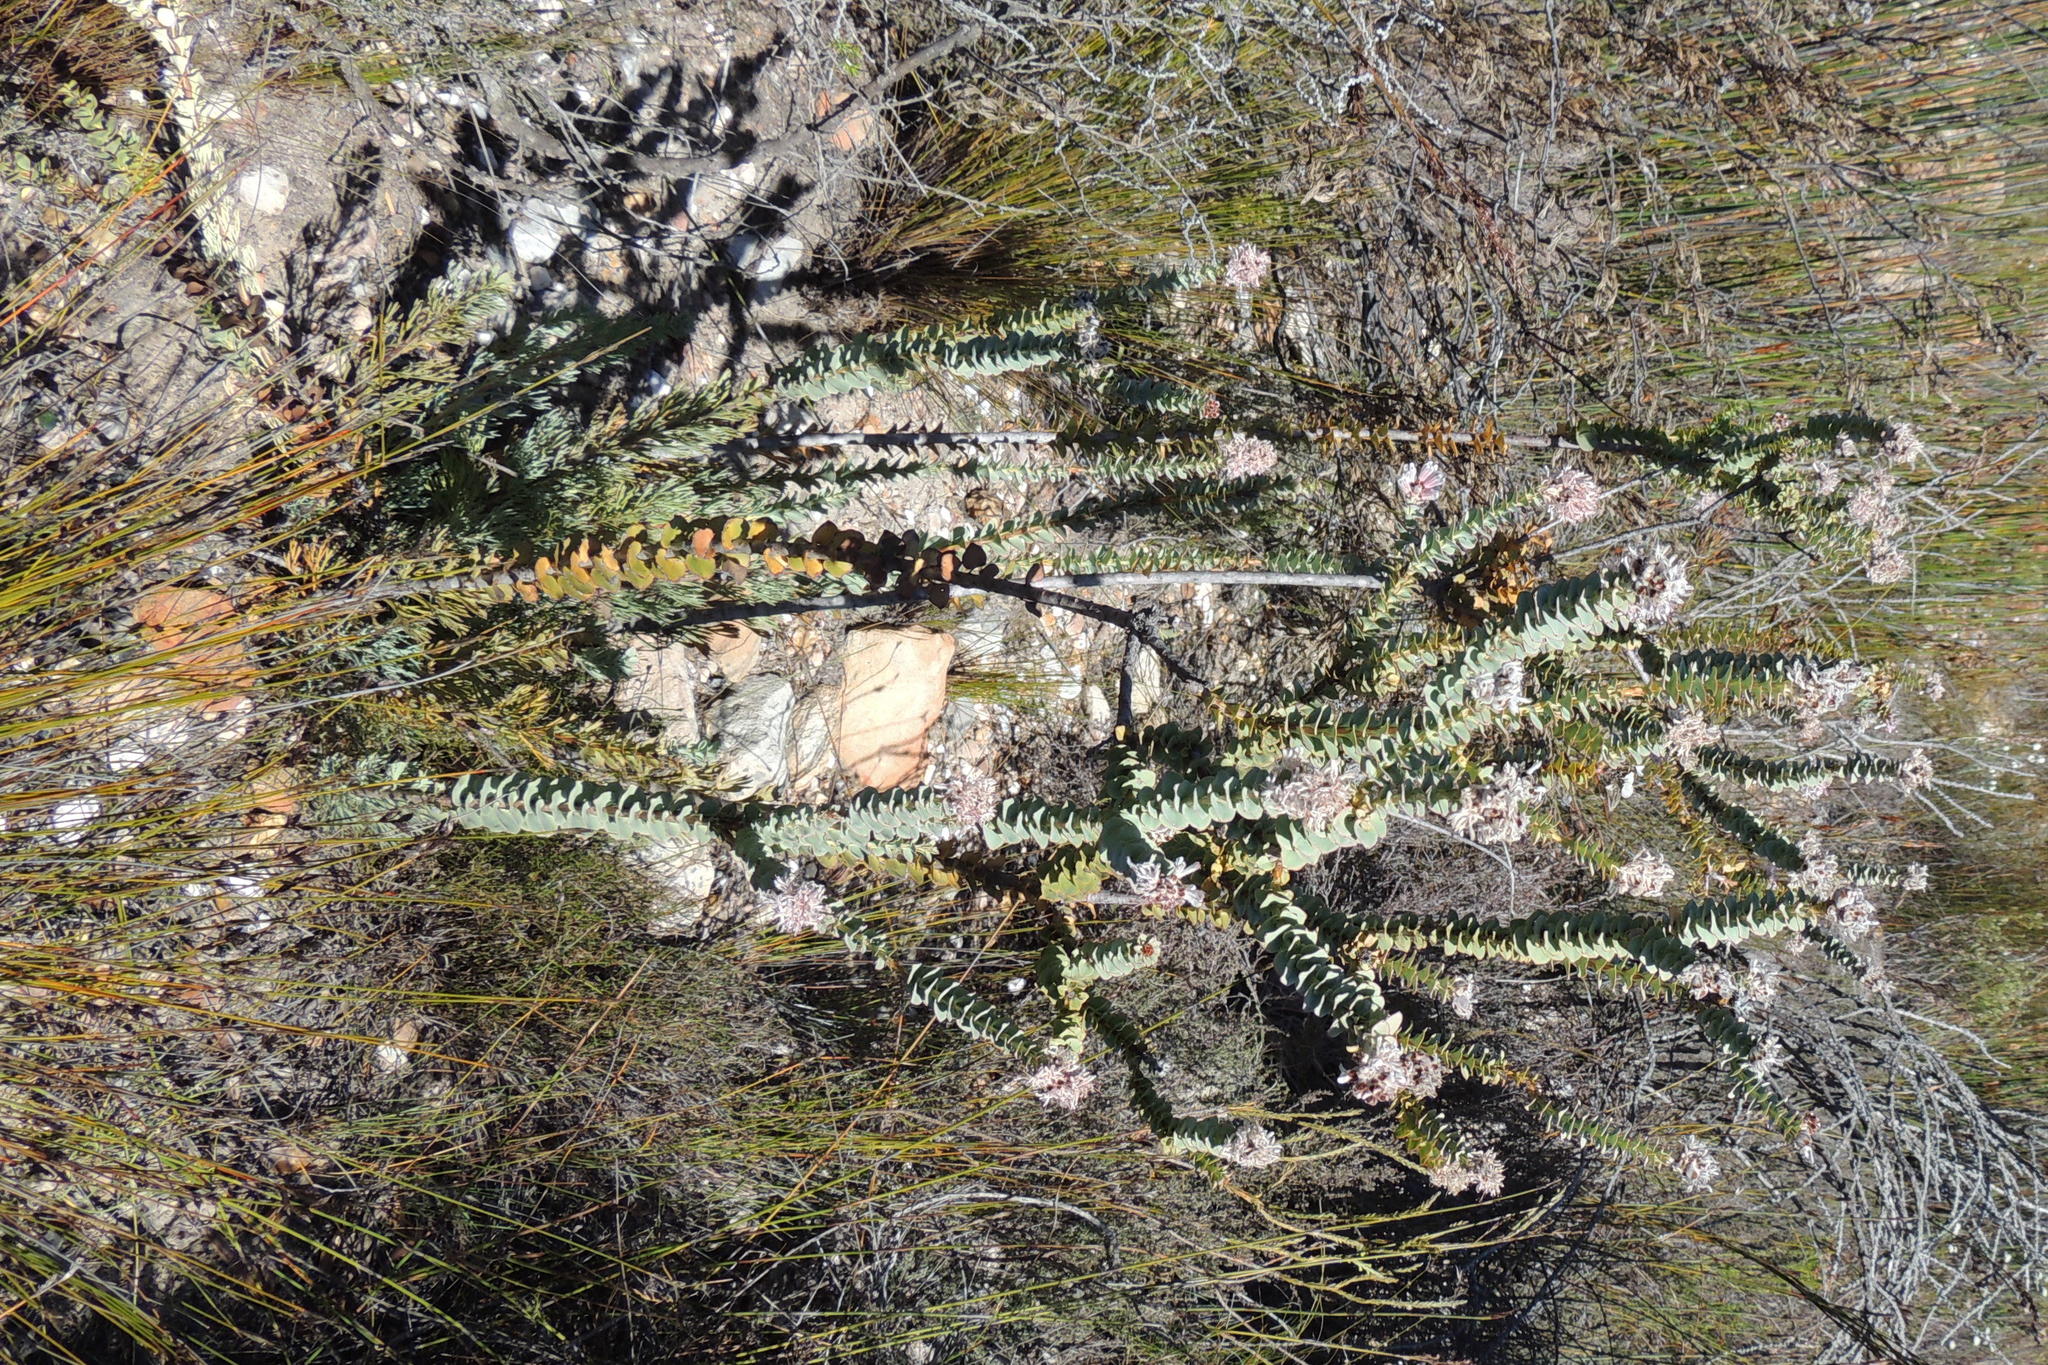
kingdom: Plantae
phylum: Tracheophyta
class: Magnoliopsida
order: Proteales
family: Proteaceae
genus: Paranomus
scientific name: Paranomus spathulatus
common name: Langeberg sceptre
